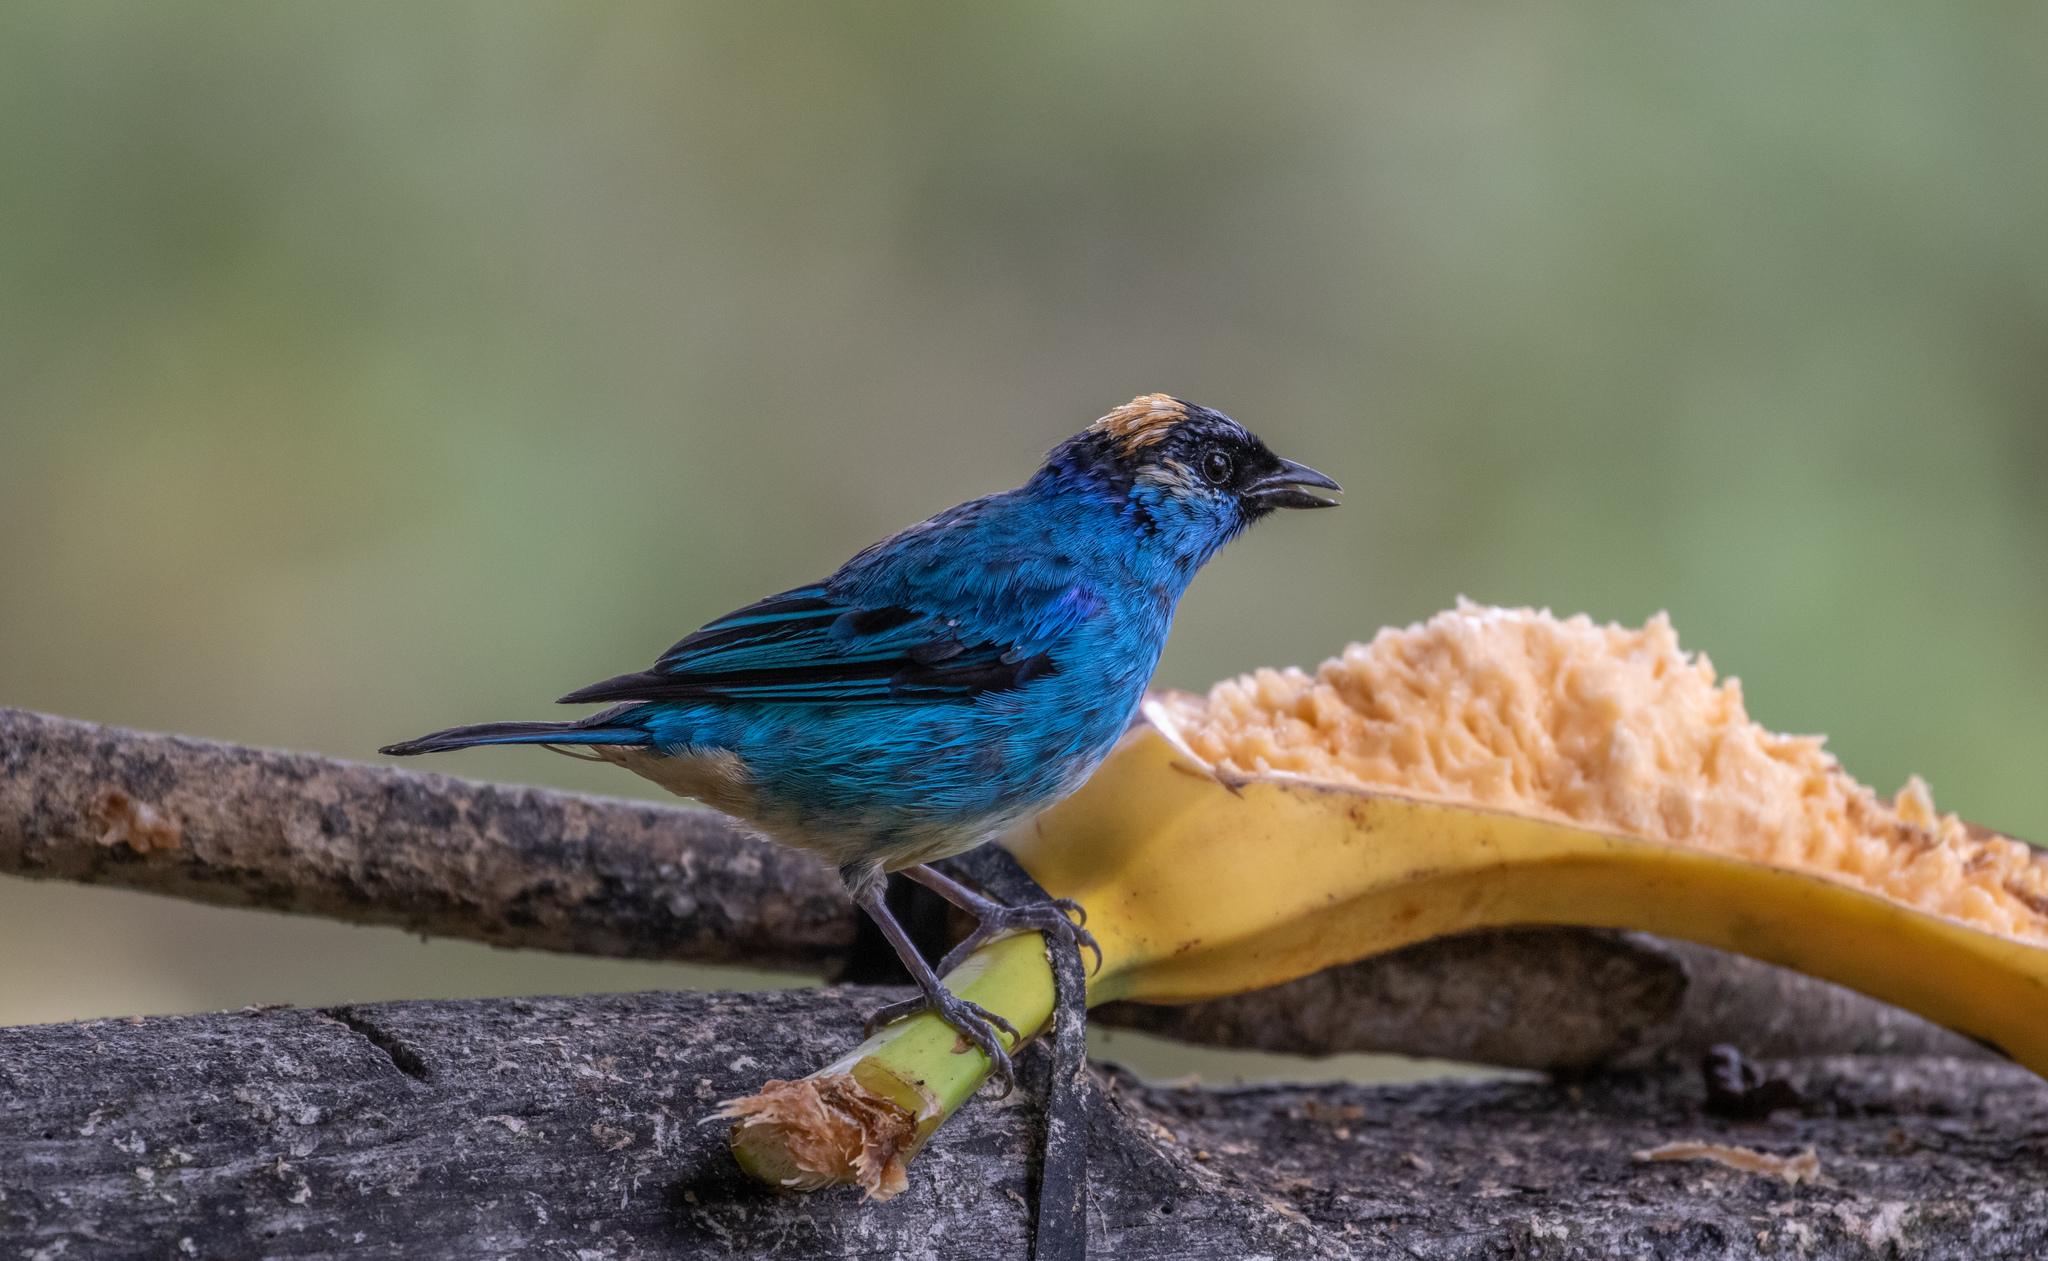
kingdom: Animalia
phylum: Chordata
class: Aves
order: Passeriformes
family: Thraupidae
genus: Chalcothraupis
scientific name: Chalcothraupis ruficervix
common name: Golden-naped tanager
